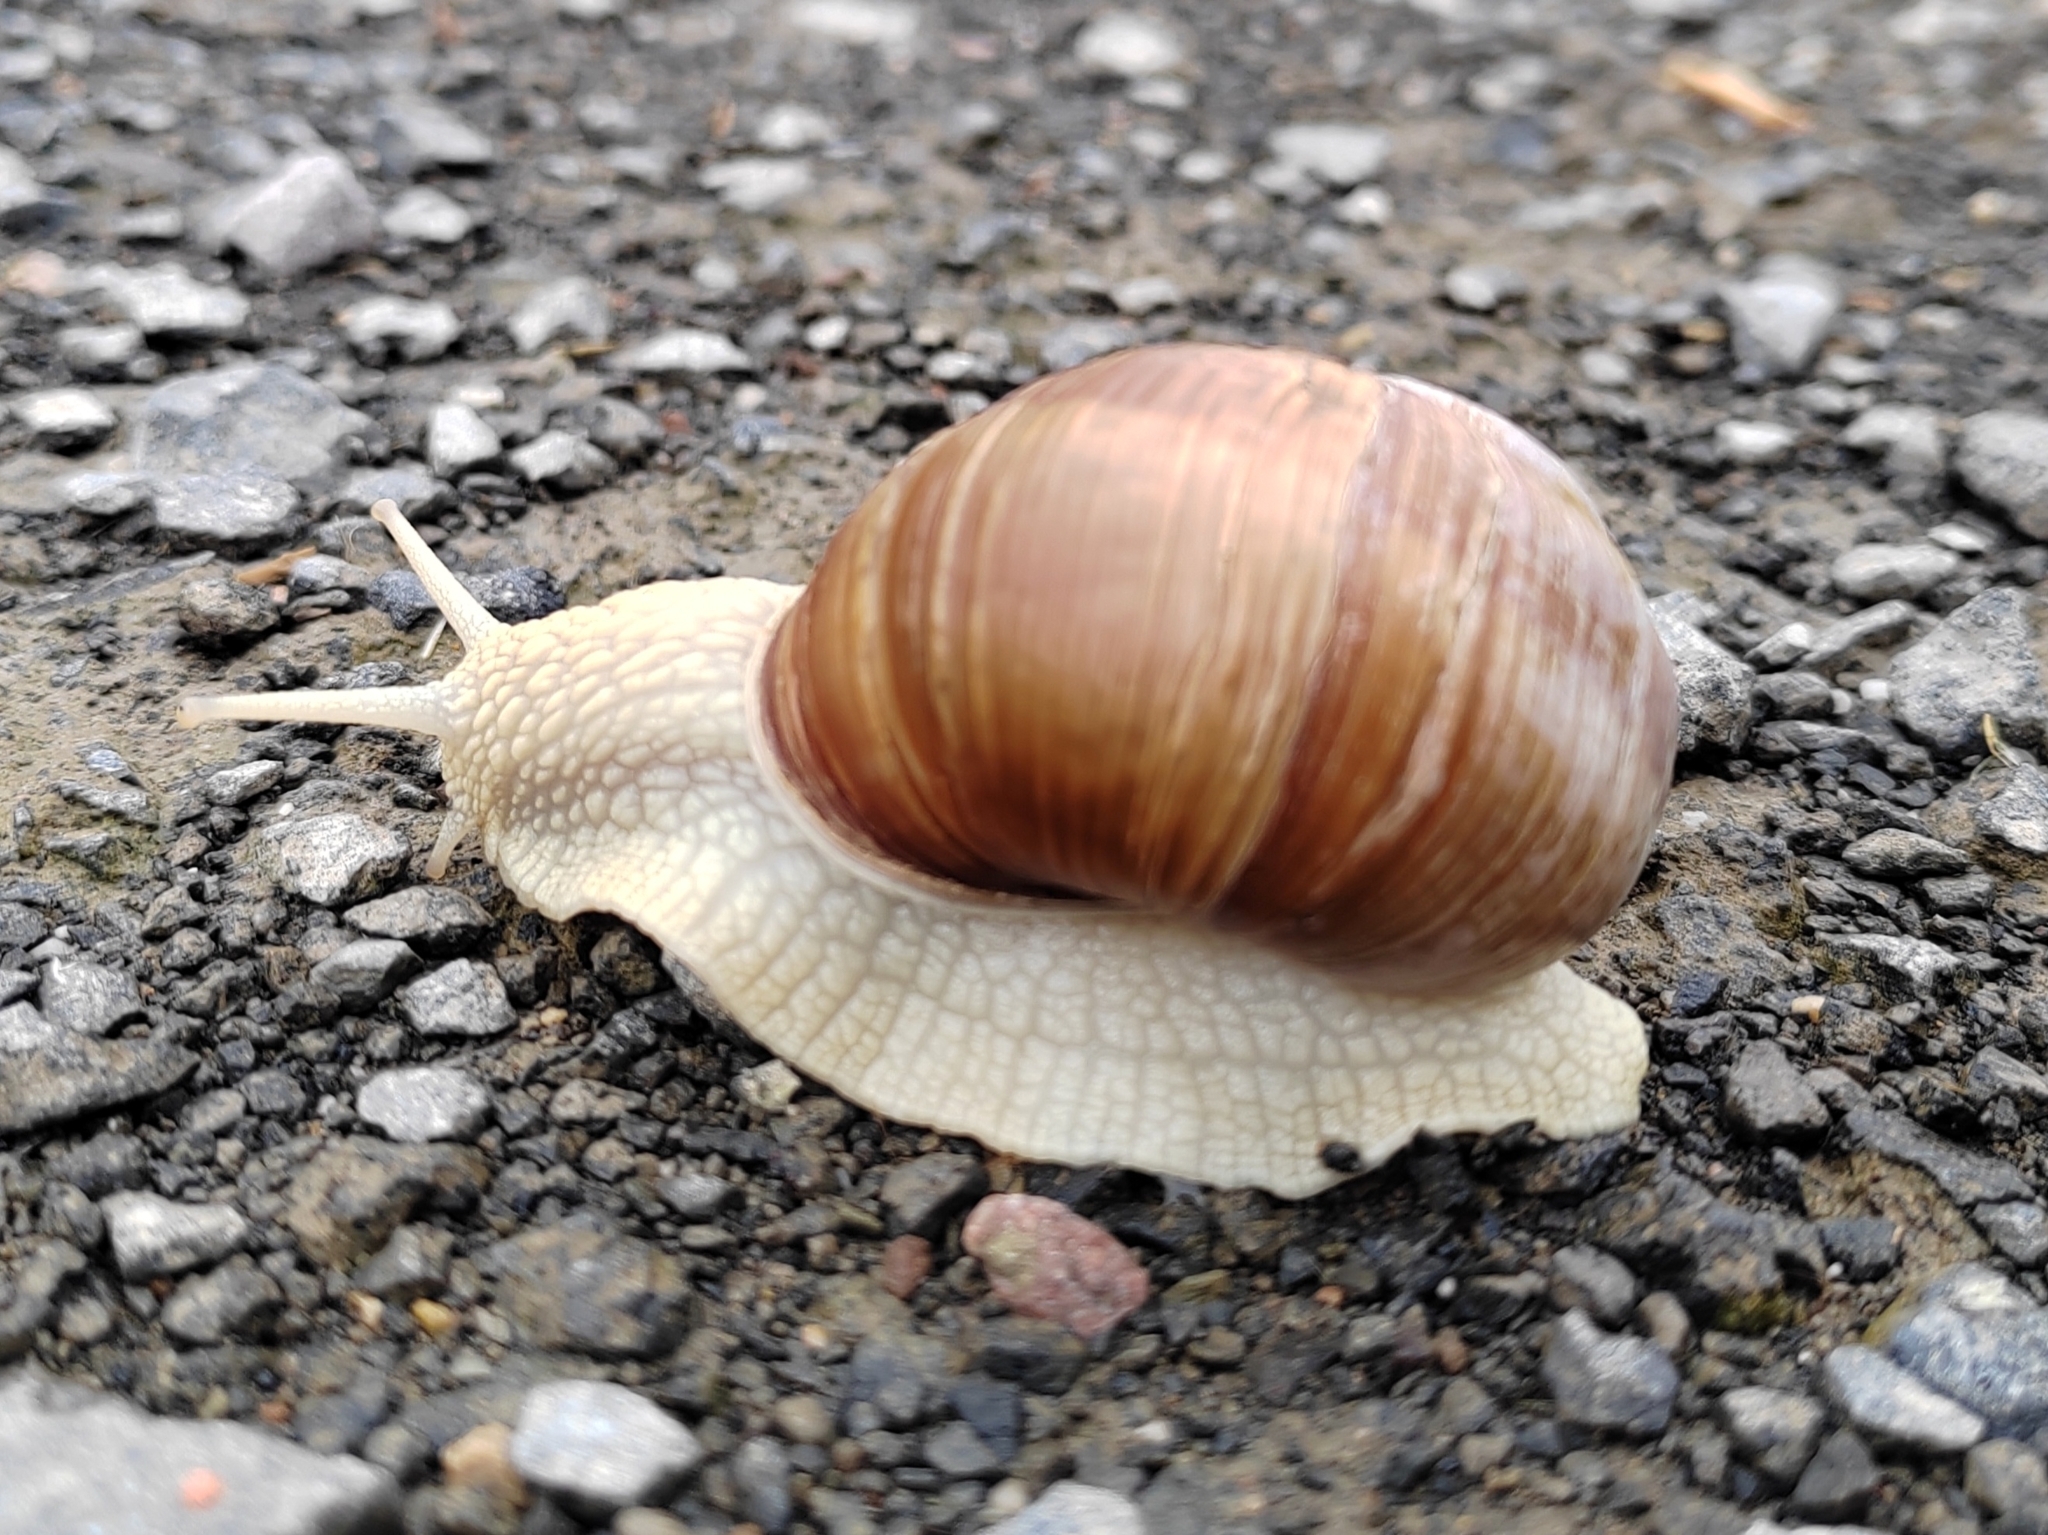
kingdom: Animalia
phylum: Mollusca
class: Gastropoda
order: Stylommatophora
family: Helicidae
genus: Helix
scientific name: Helix pomatia
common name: Roman snail
